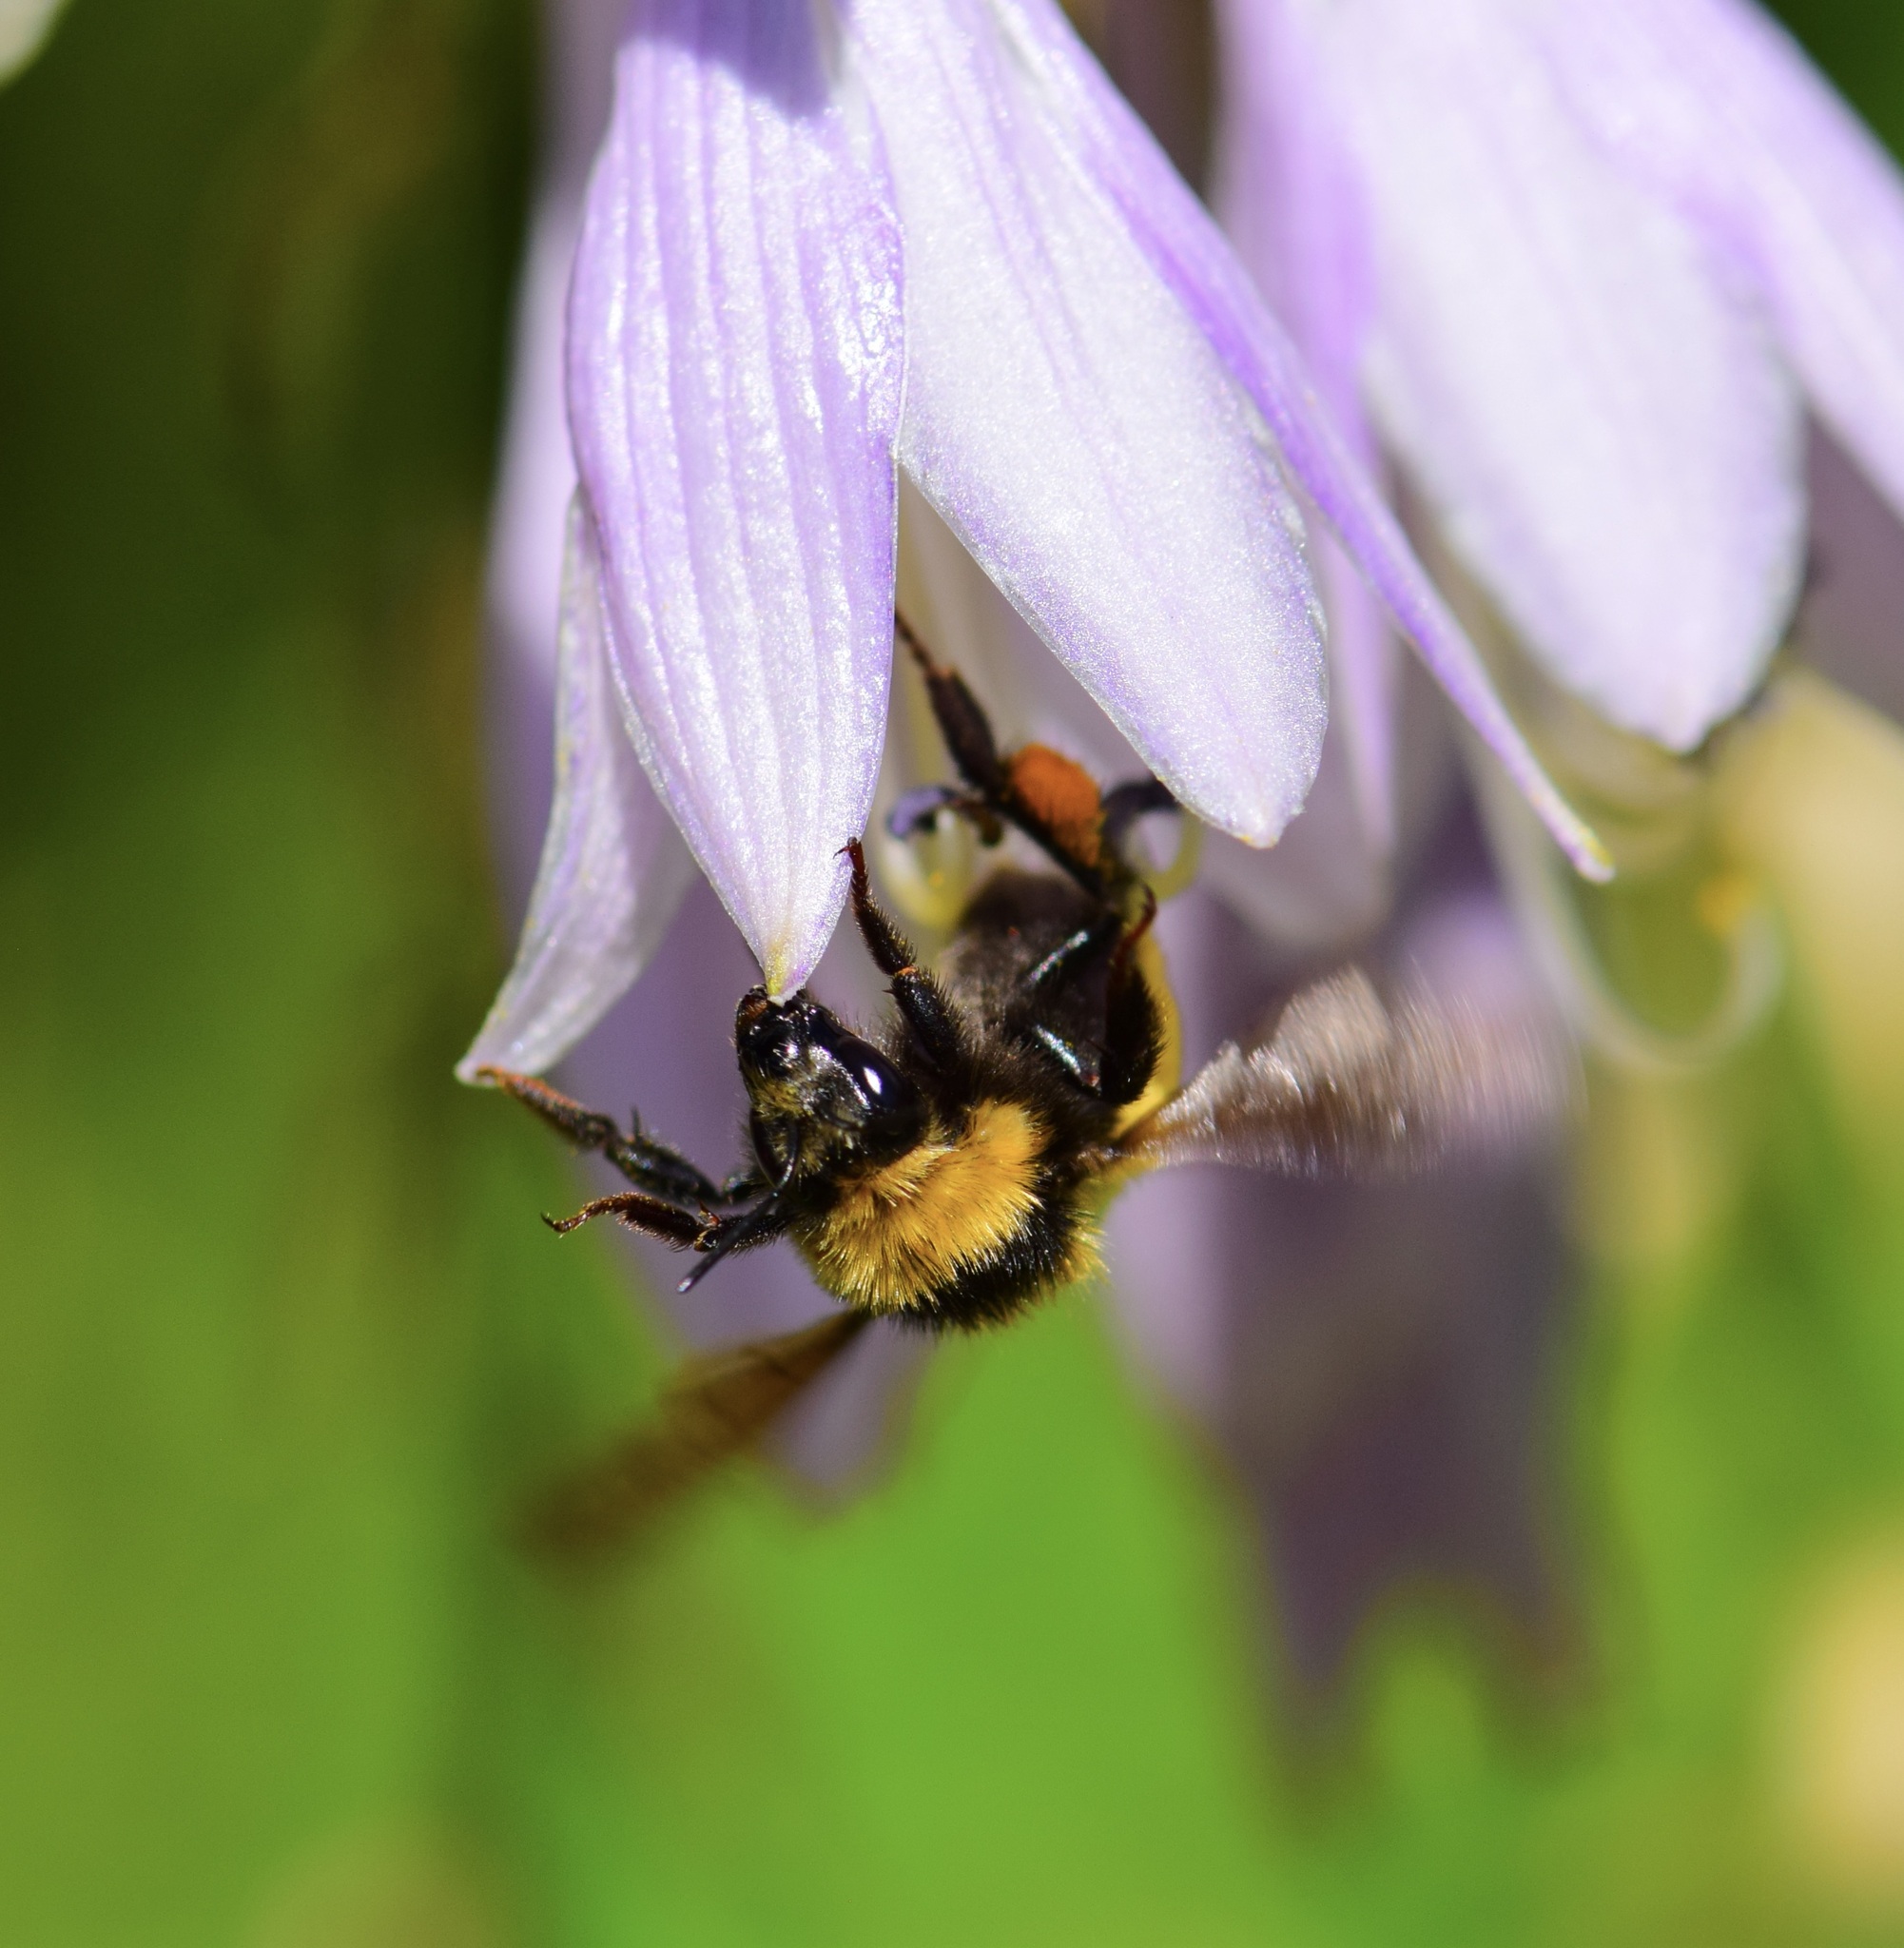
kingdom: Animalia
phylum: Arthropoda
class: Insecta
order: Hymenoptera
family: Apidae
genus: Bombus
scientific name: Bombus borealis
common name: Northern amber bumble bee
